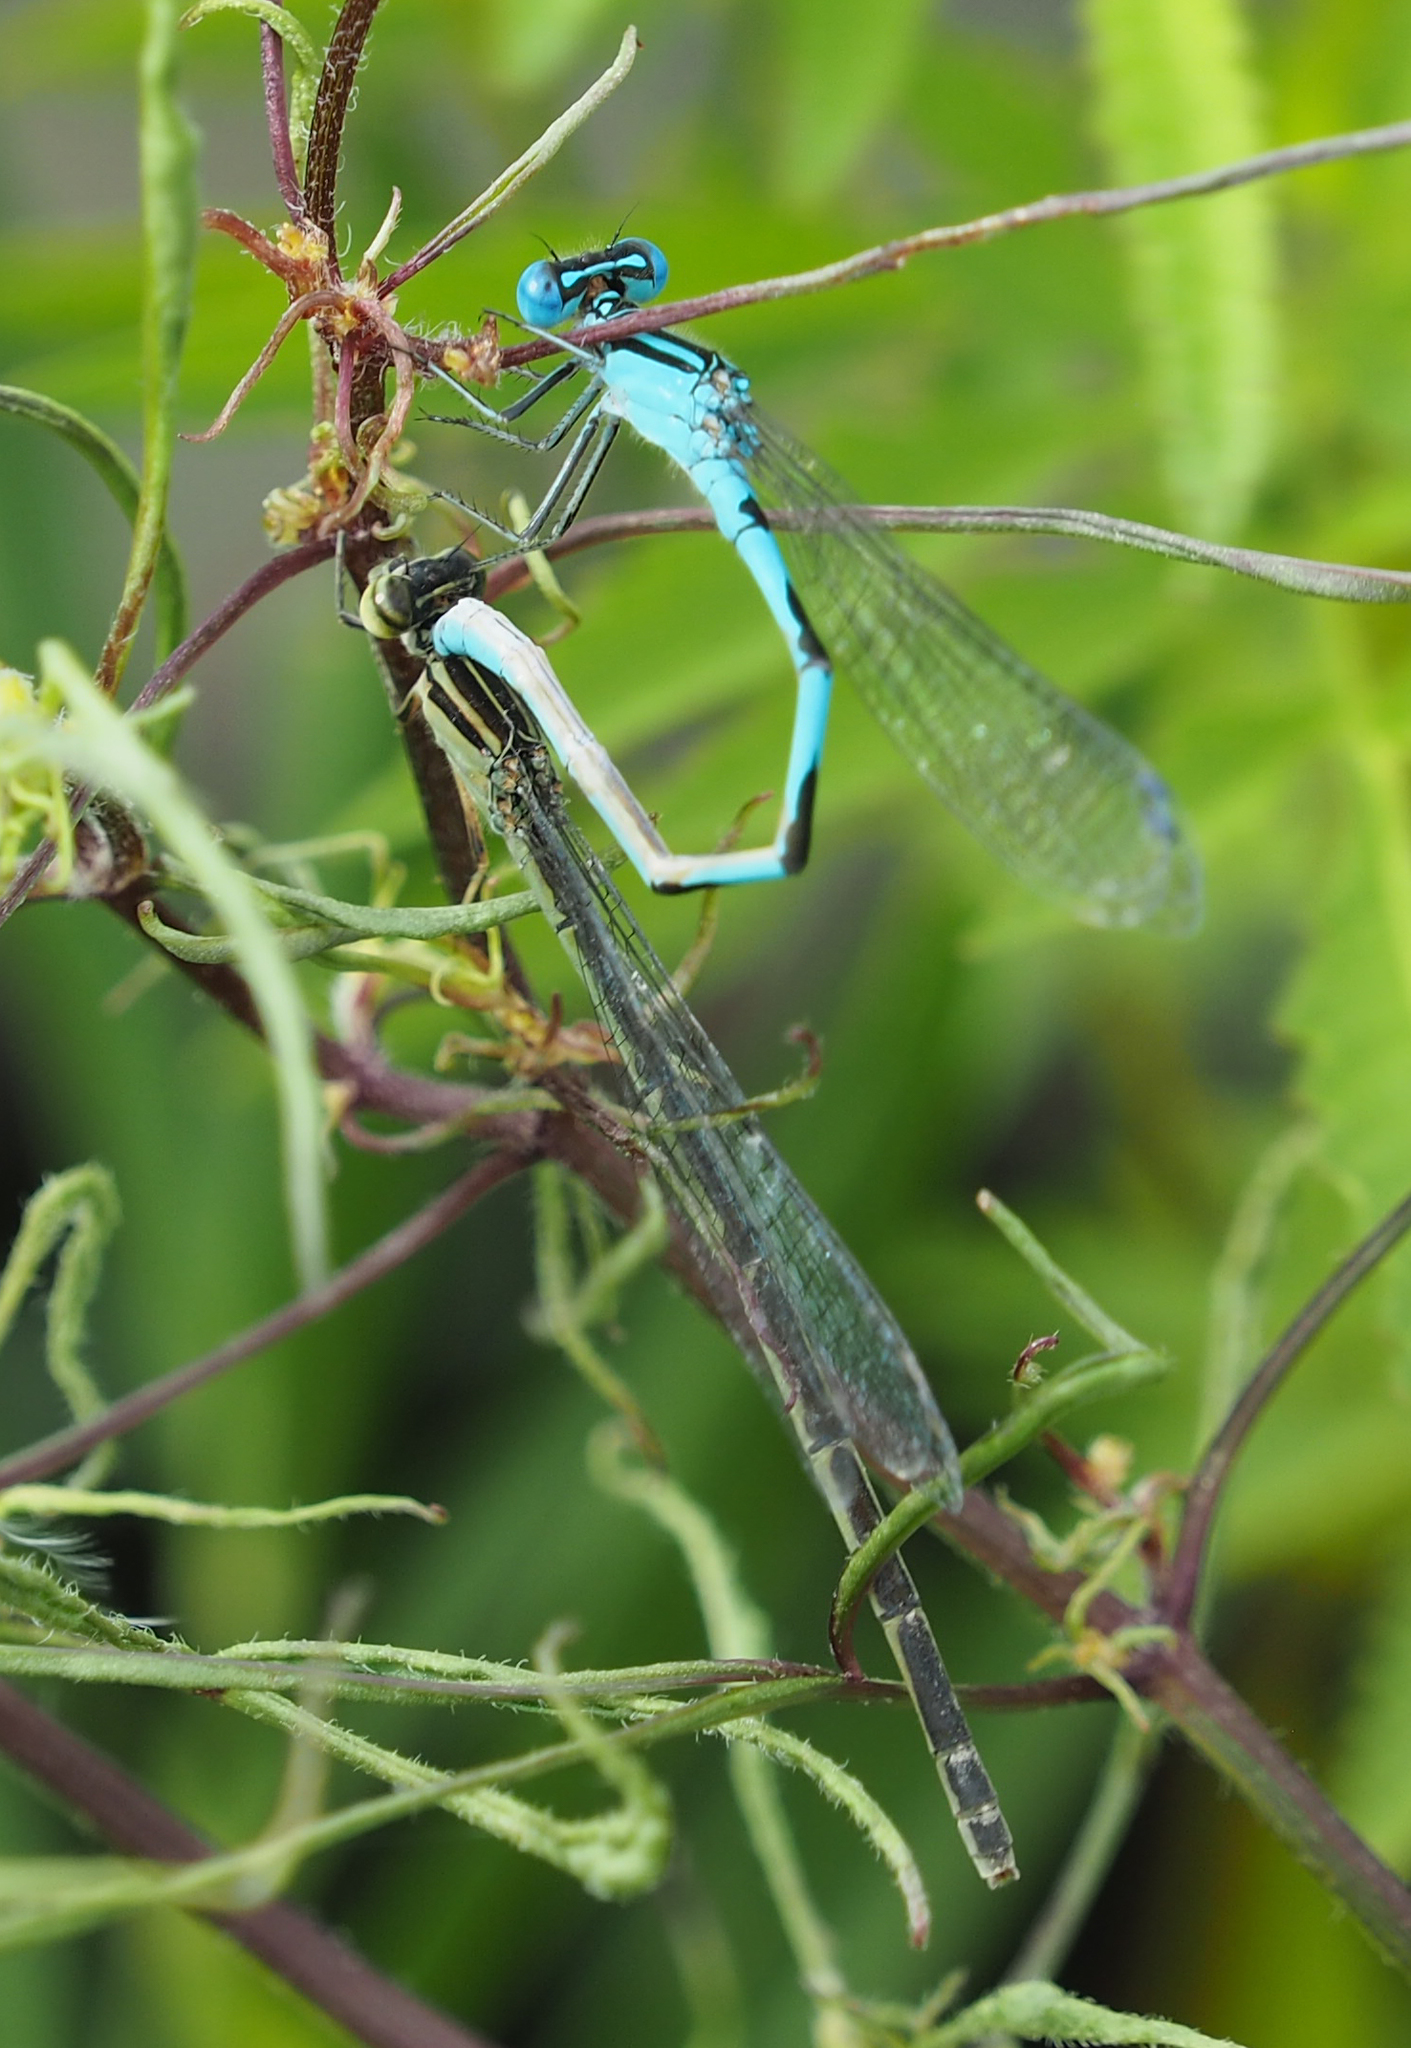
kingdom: Animalia
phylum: Arthropoda
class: Insecta
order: Odonata
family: Coenagrionidae
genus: Enallagma
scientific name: Enallagma durum
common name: Big bluet
